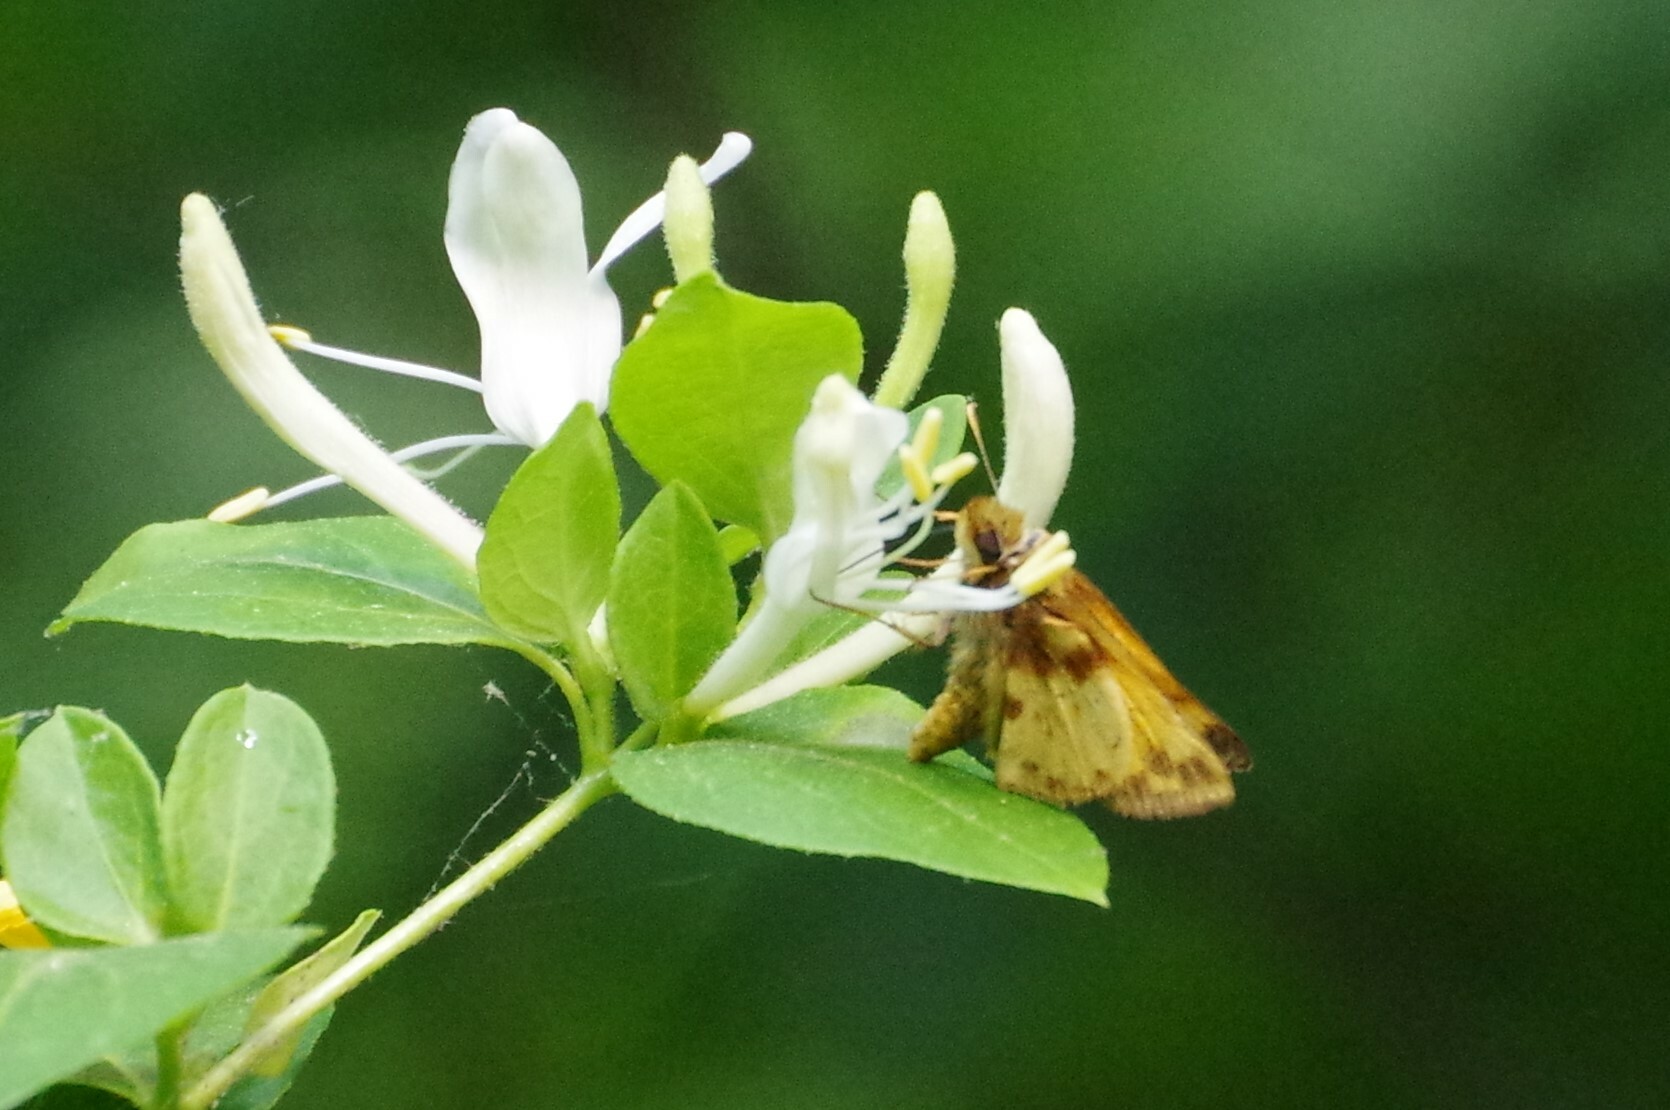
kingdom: Animalia
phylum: Arthropoda
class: Insecta
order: Lepidoptera
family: Hesperiidae
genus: Lon
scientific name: Lon zabulon
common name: Zabulon skipper
